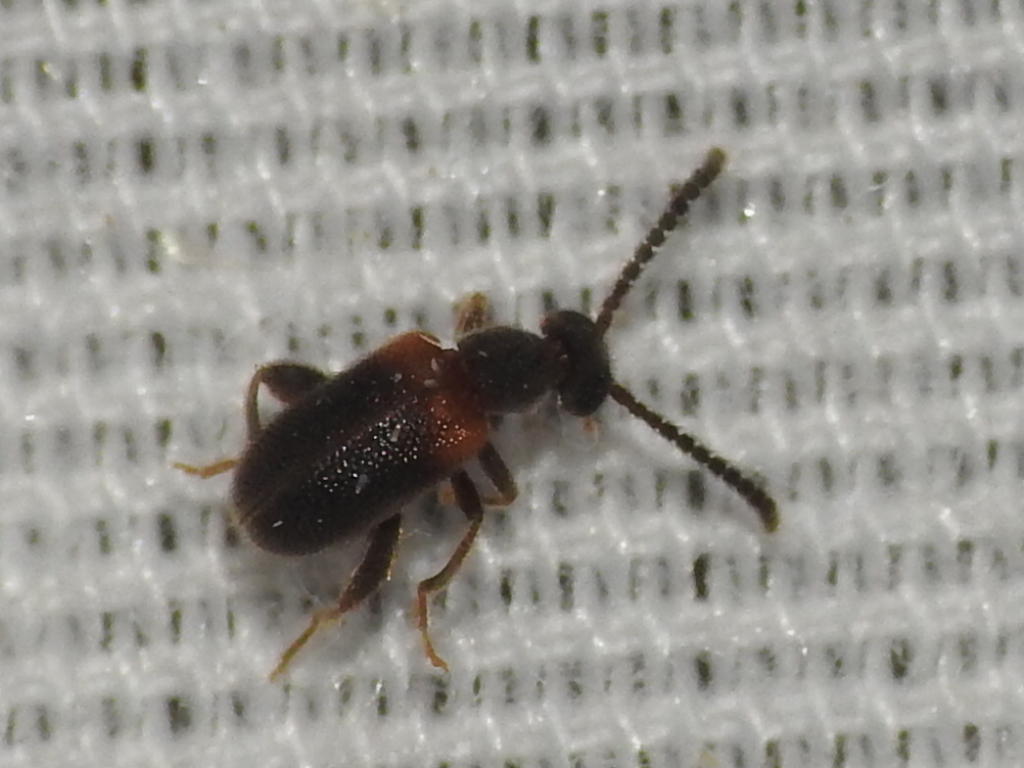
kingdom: Animalia
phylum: Arthropoda
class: Insecta
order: Coleoptera
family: Aderidae
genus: Elonus
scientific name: Elonus basalis
